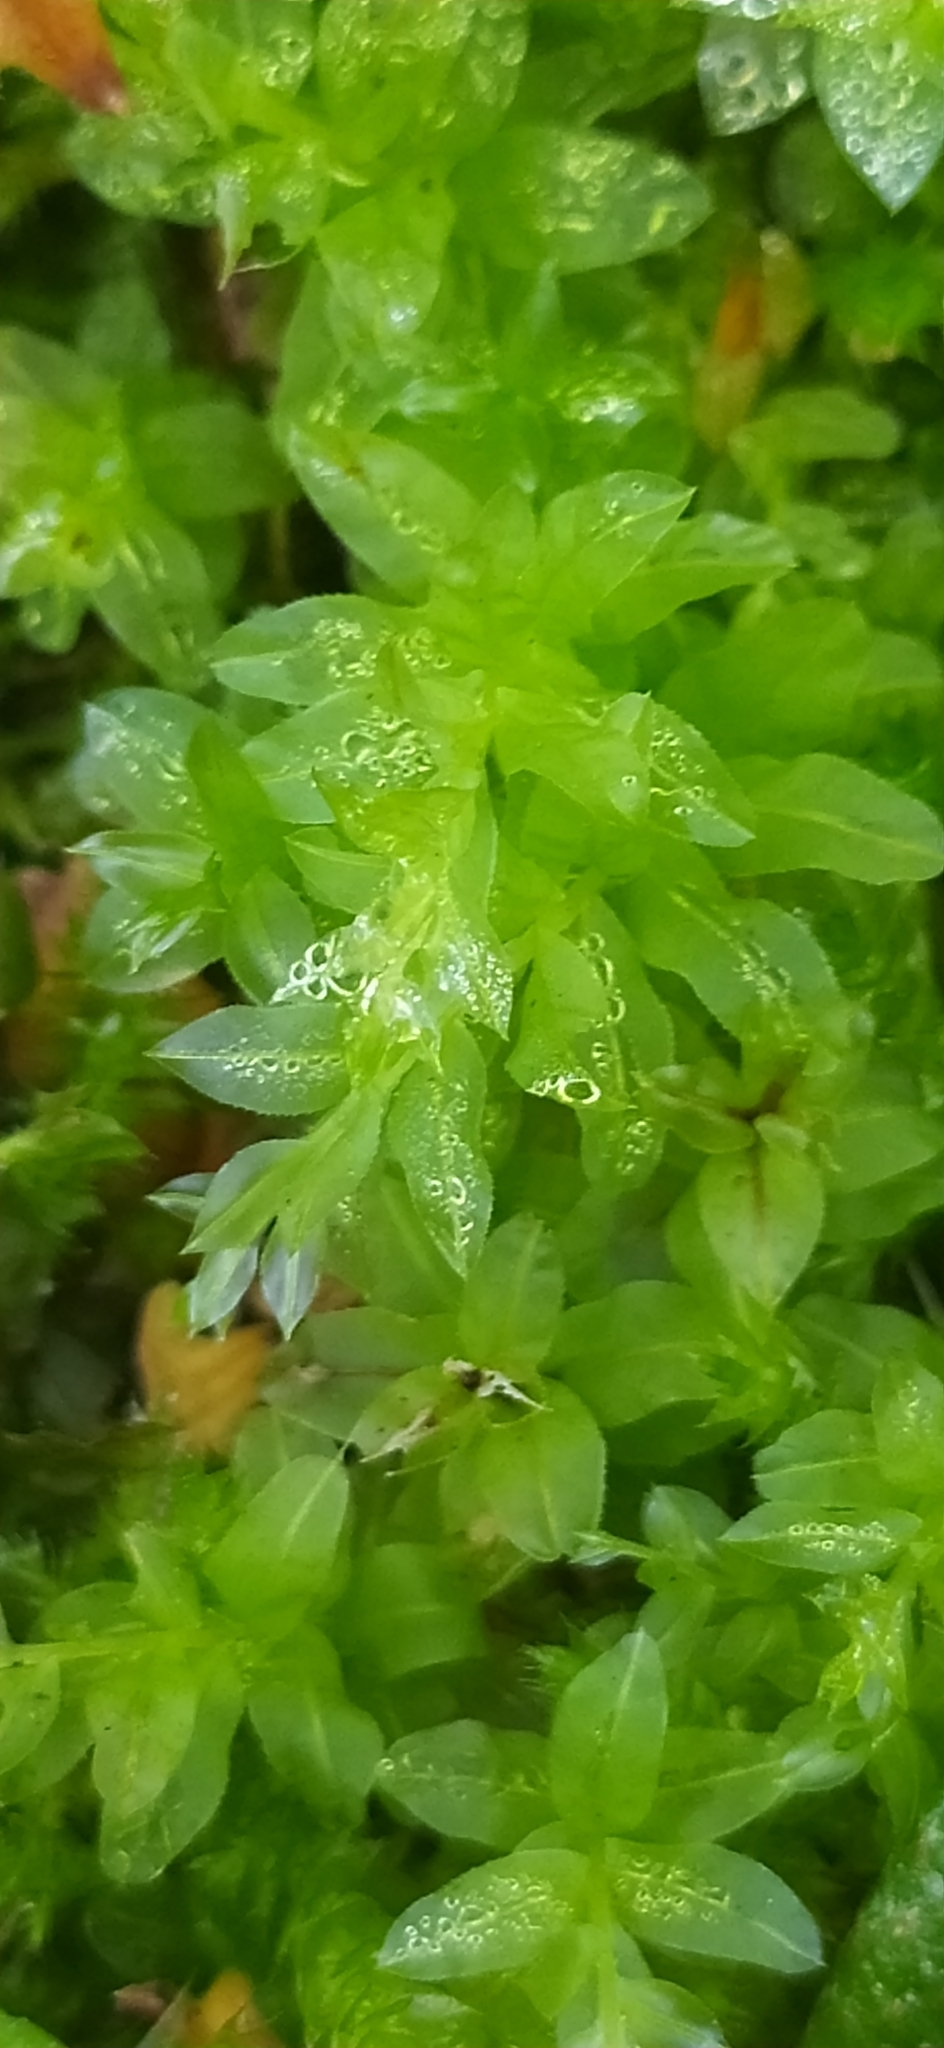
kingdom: Plantae
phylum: Bryophyta
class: Bryopsida
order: Bryales
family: Mniaceae
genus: Plagiomnium
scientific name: Plagiomnium undulatum
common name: Hart's-tongue thyme-moss
